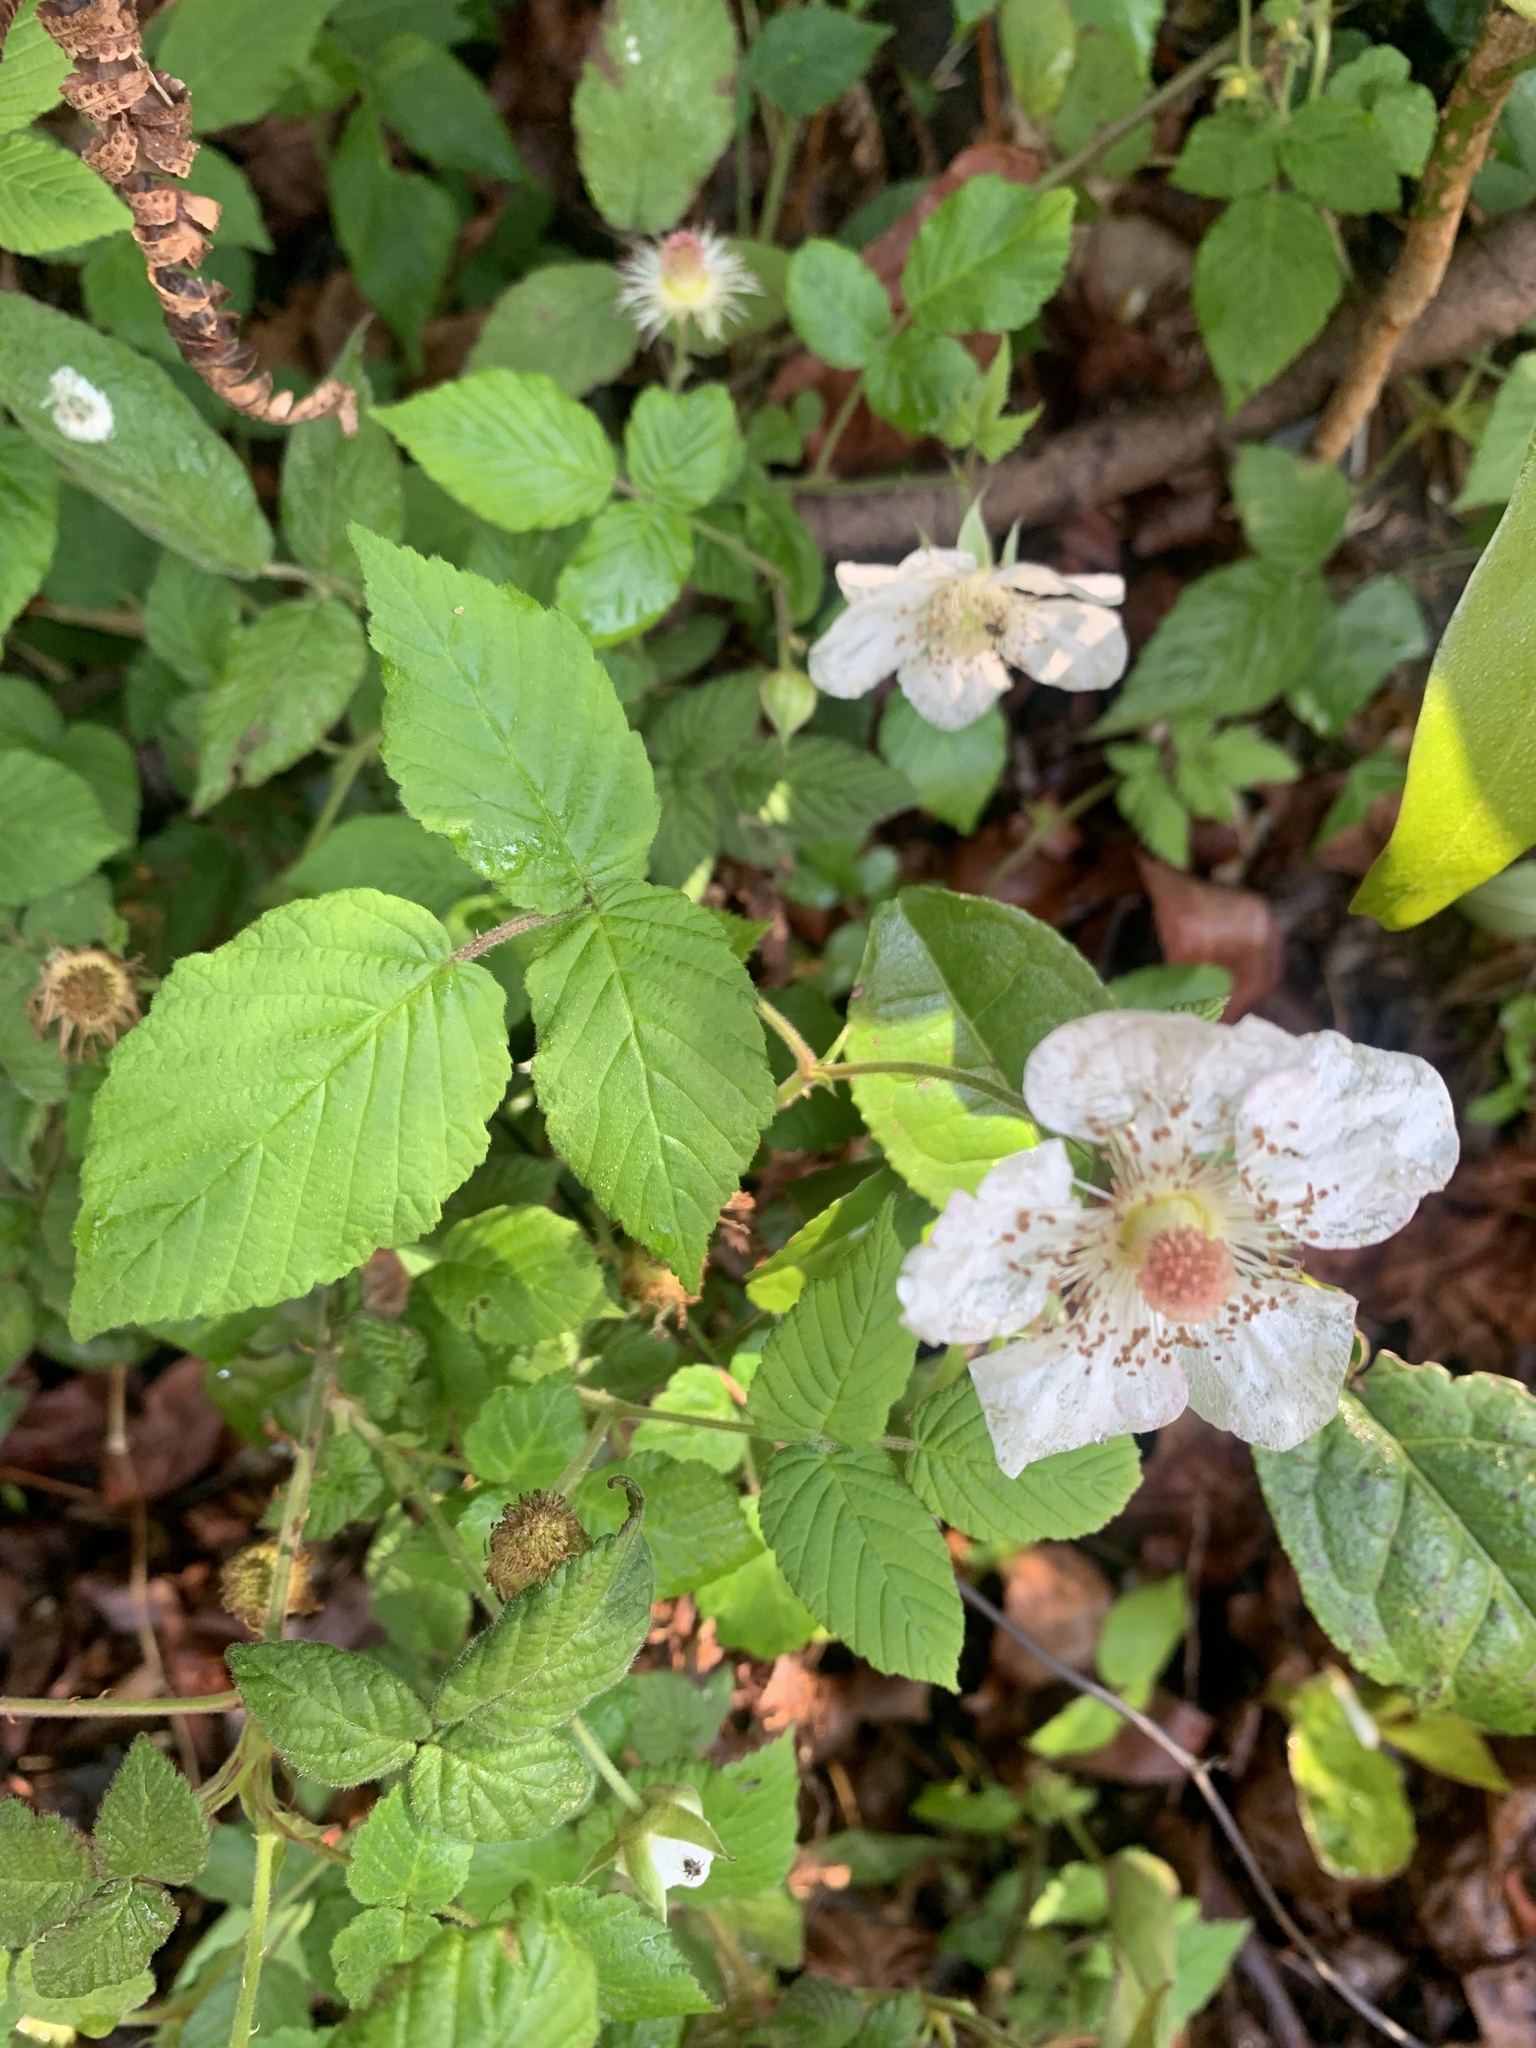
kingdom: Plantae
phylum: Tracheophyta
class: Magnoliopsida
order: Rosales
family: Rosaceae
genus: Rubus
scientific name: Rubus hirsutus
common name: Hirsute raspberry
